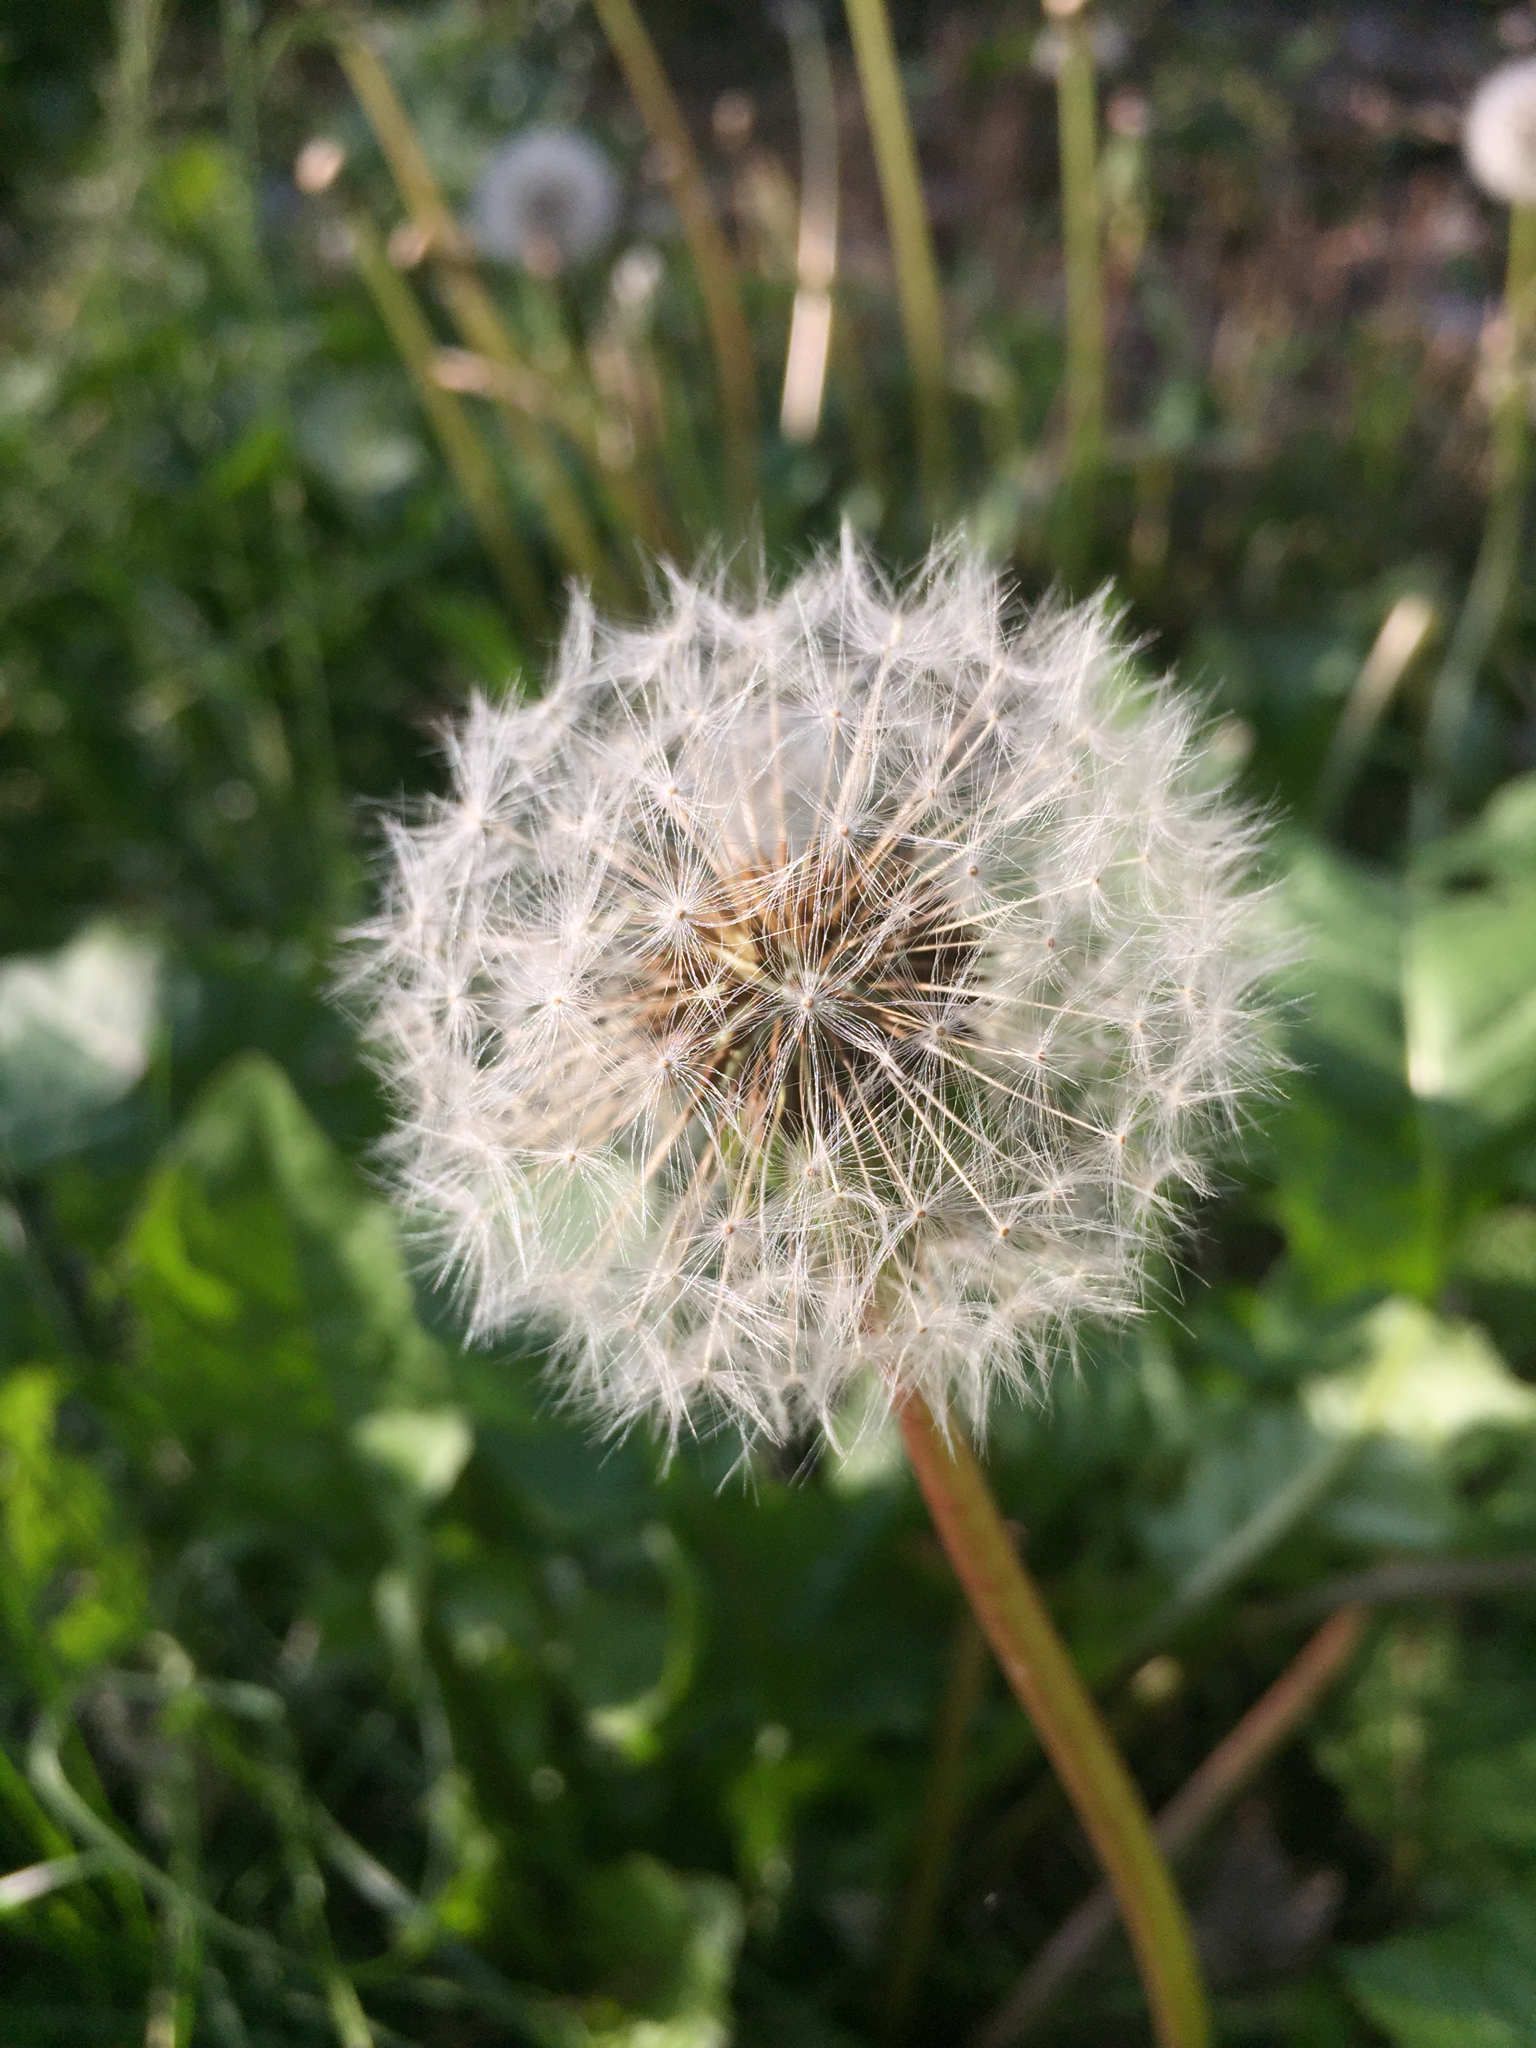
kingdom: Plantae
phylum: Tracheophyta
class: Magnoliopsida
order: Asterales
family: Asteraceae
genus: Taraxacum
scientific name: Taraxacum officinale
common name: Common dandelion
